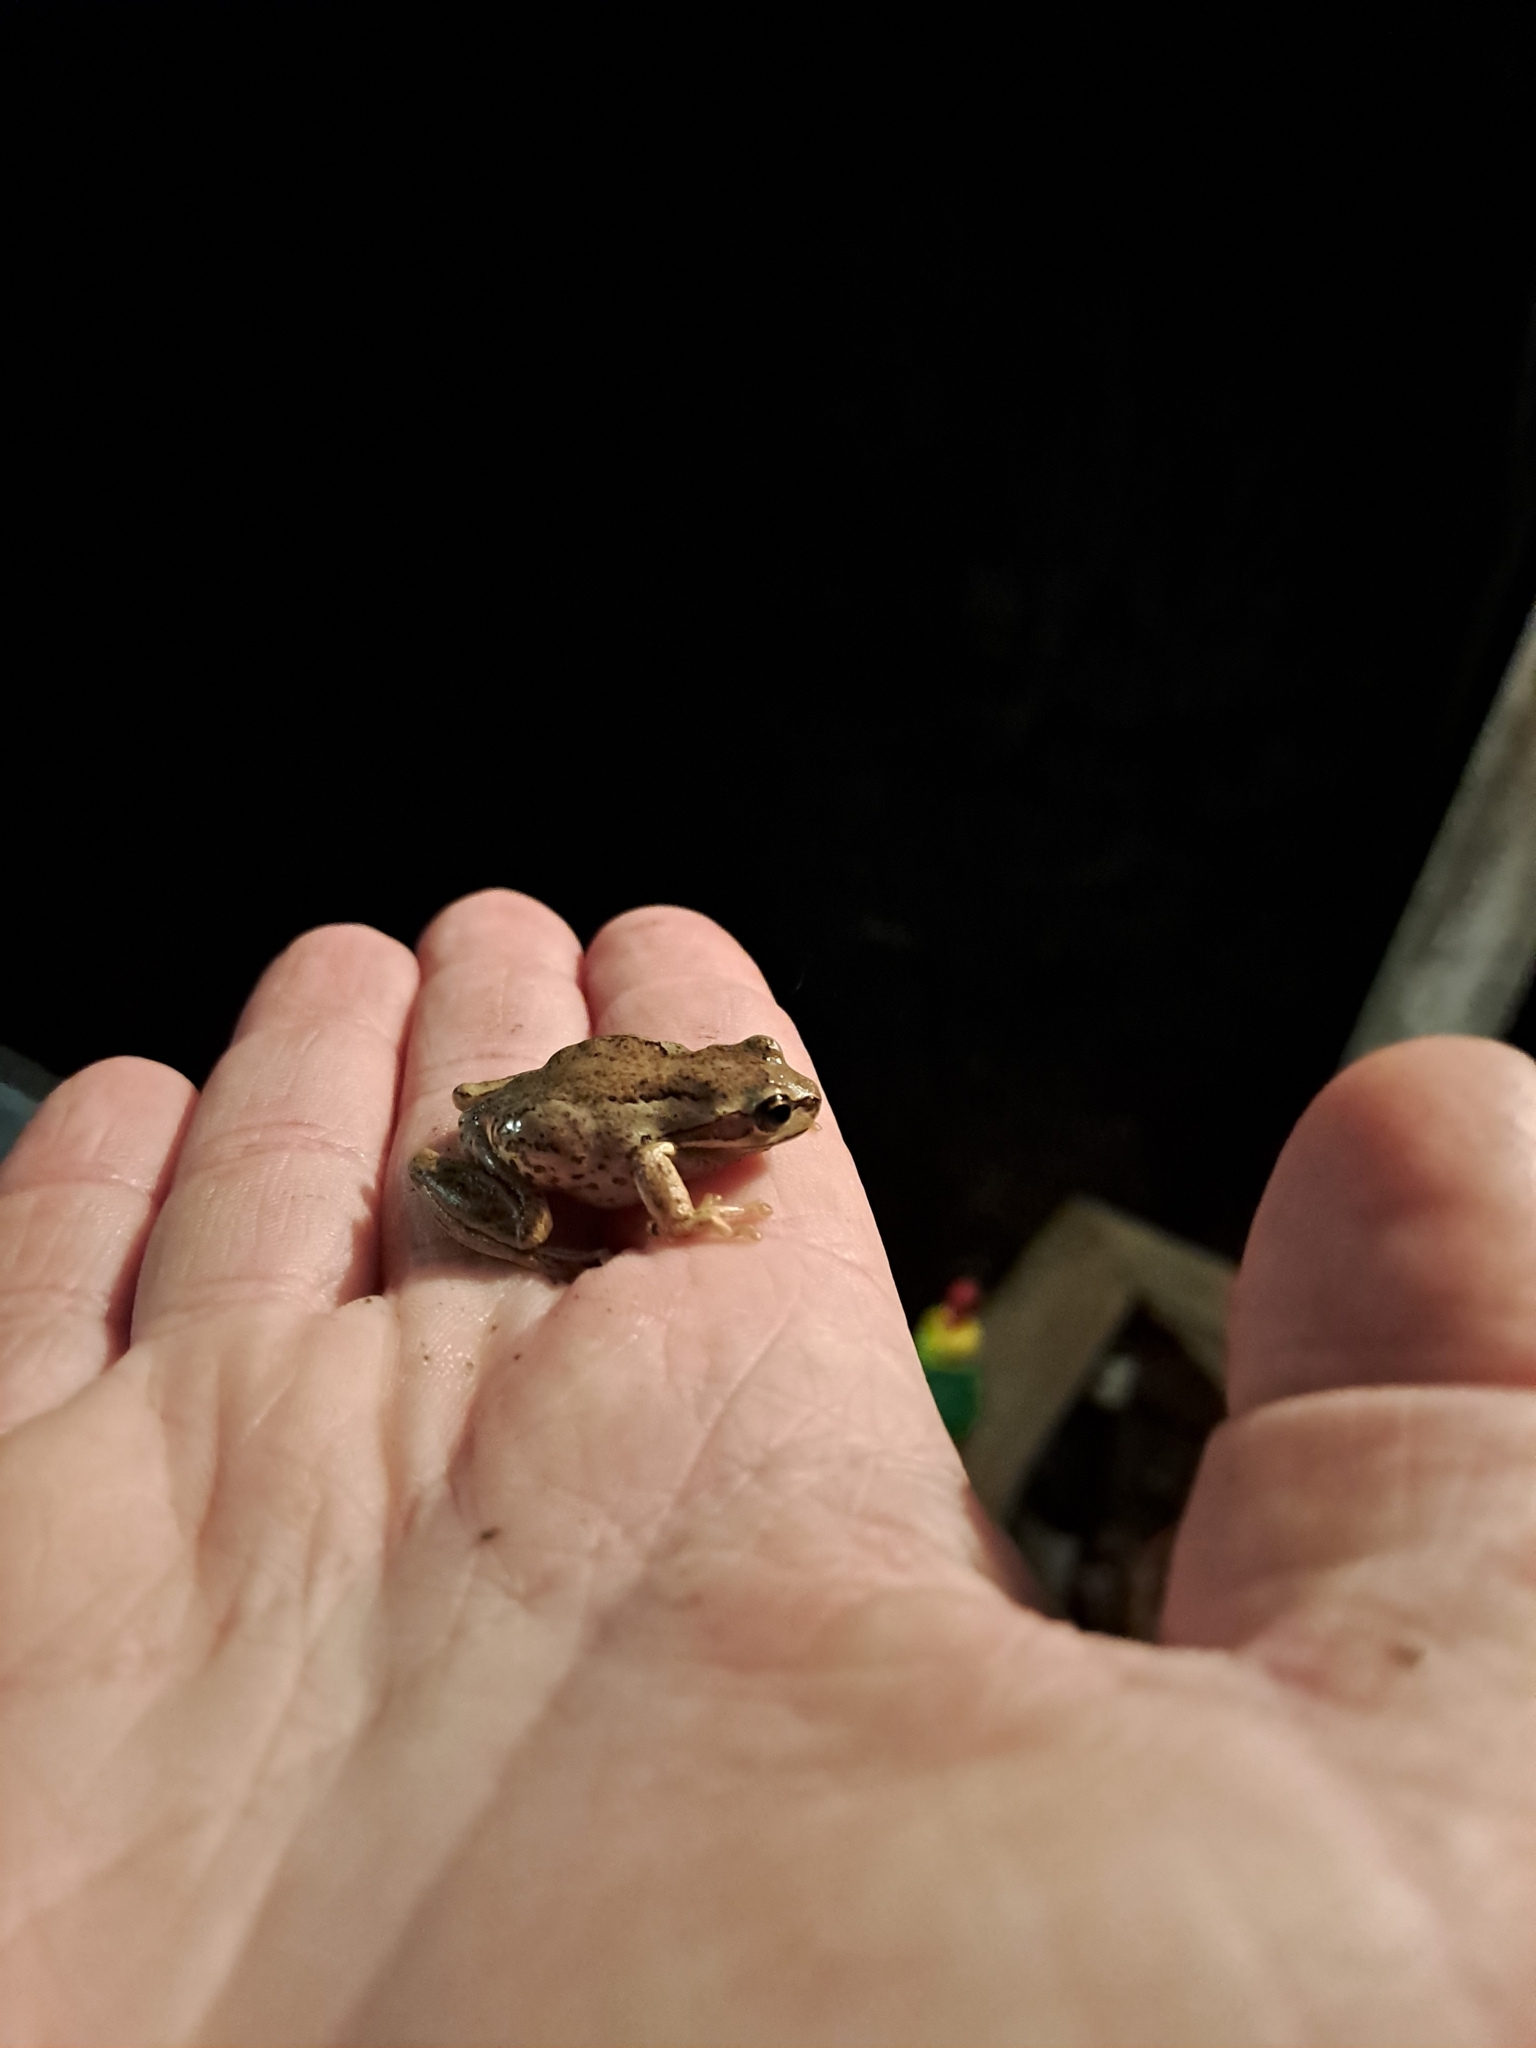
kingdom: Animalia
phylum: Chordata
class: Amphibia
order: Anura
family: Pelodryadidae
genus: Litoria
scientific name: Litoria ewingii
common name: Southern brown tree frog
